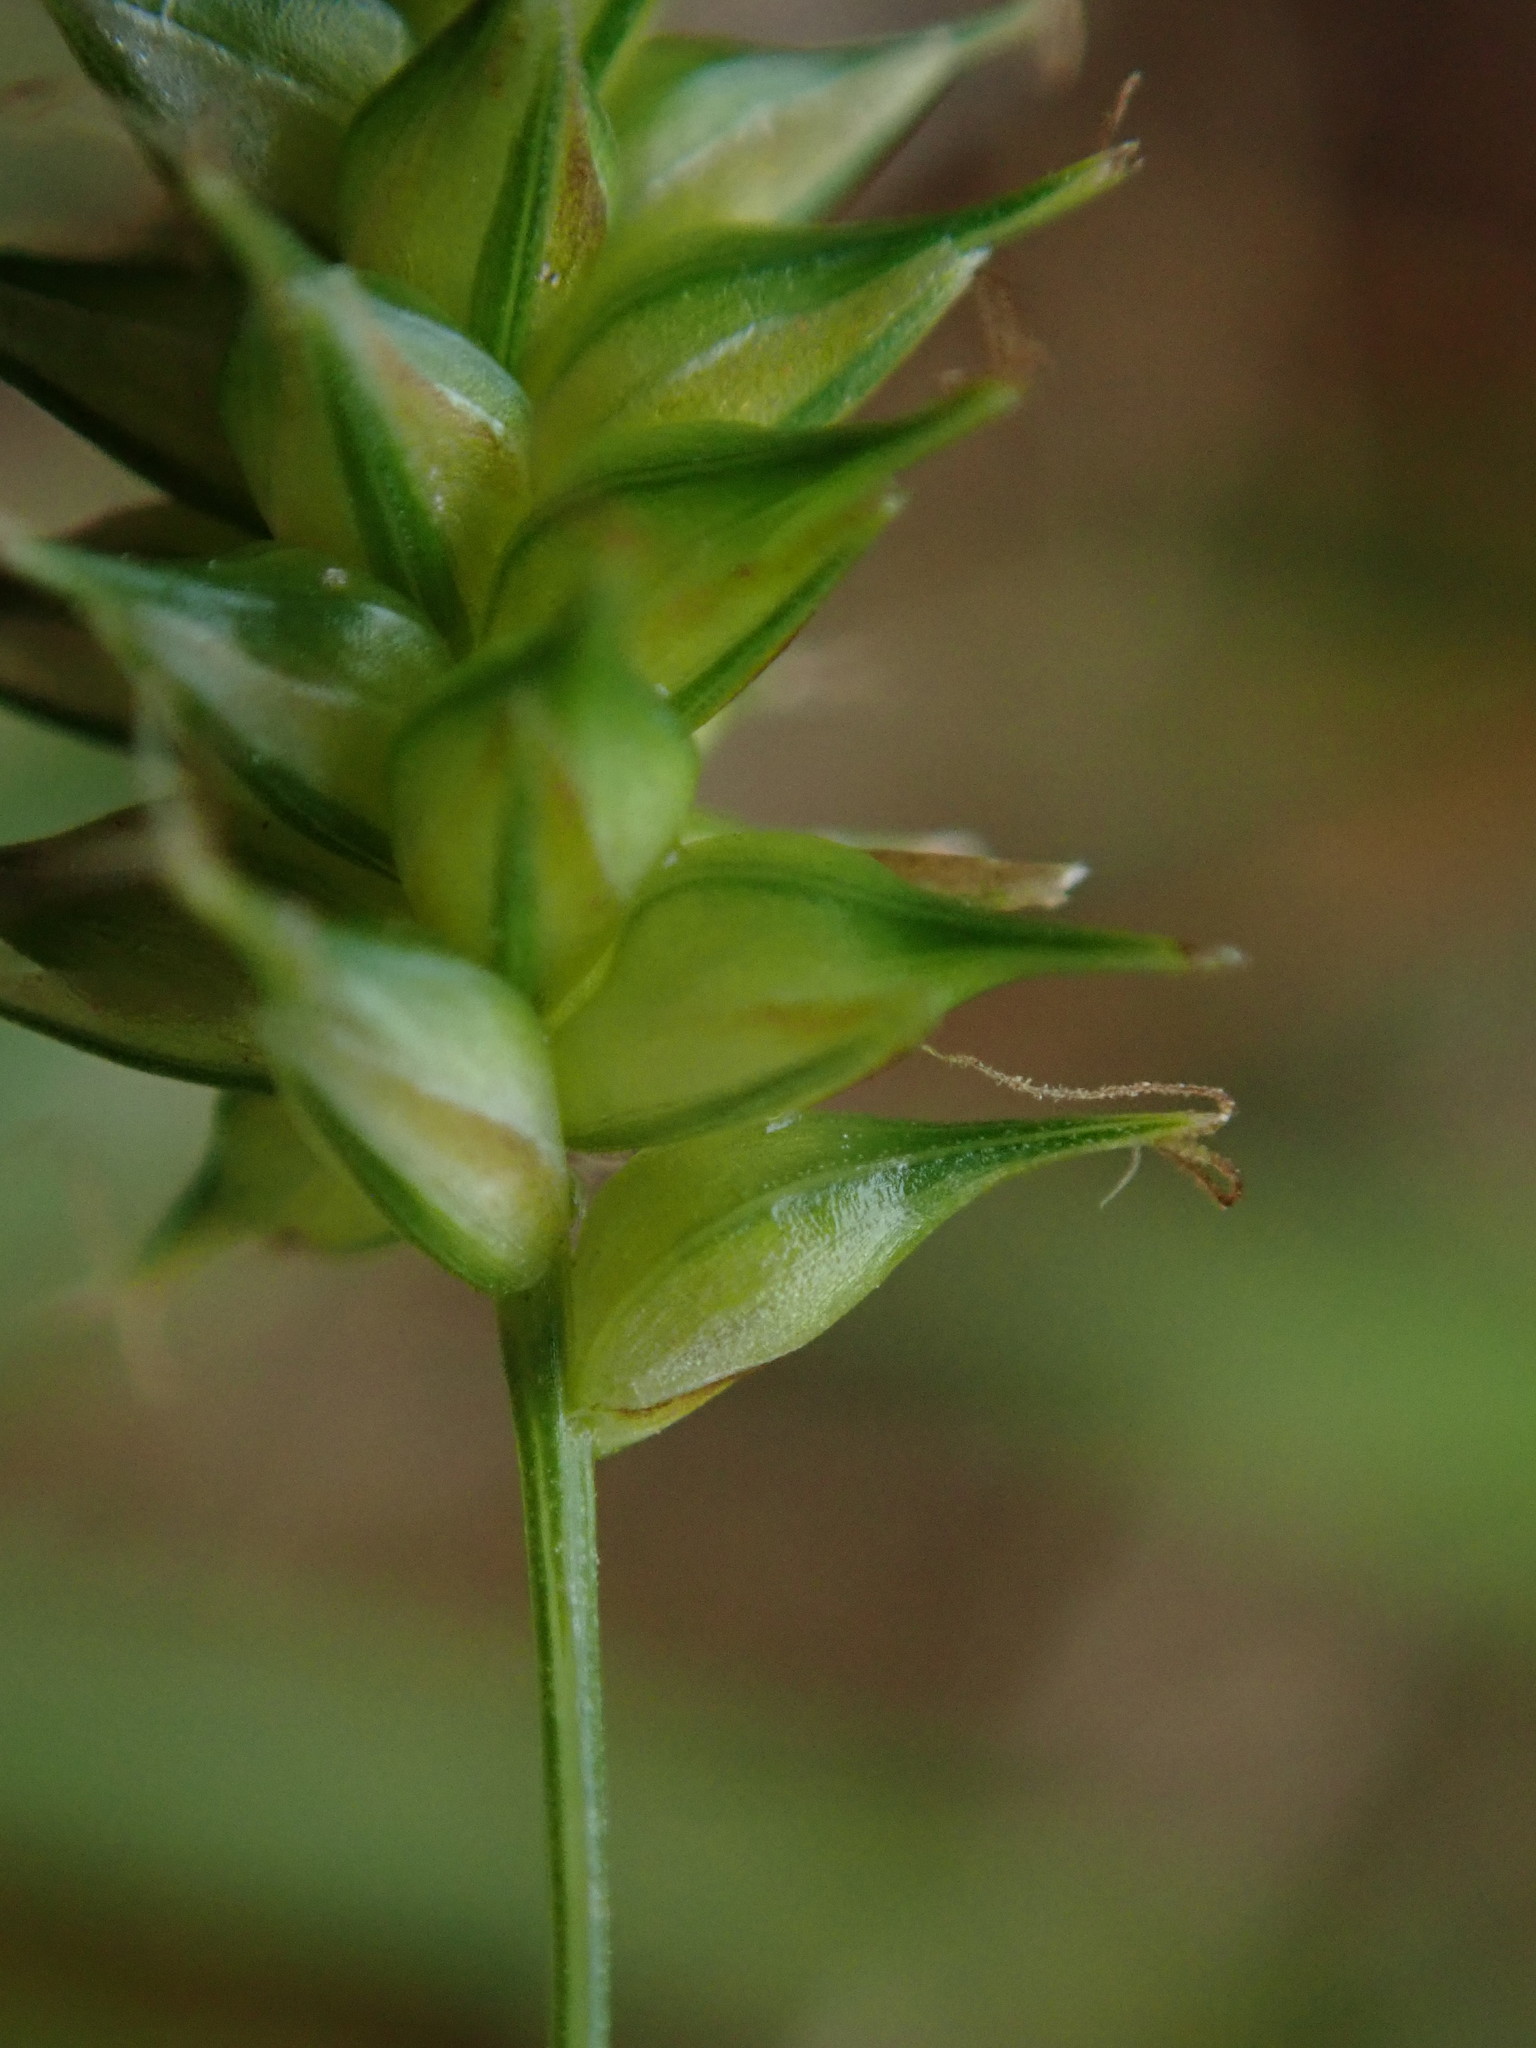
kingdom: Plantae
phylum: Tracheophyta
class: Liliopsida
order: Poales
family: Cyperaceae
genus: Carex
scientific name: Carex demissa
